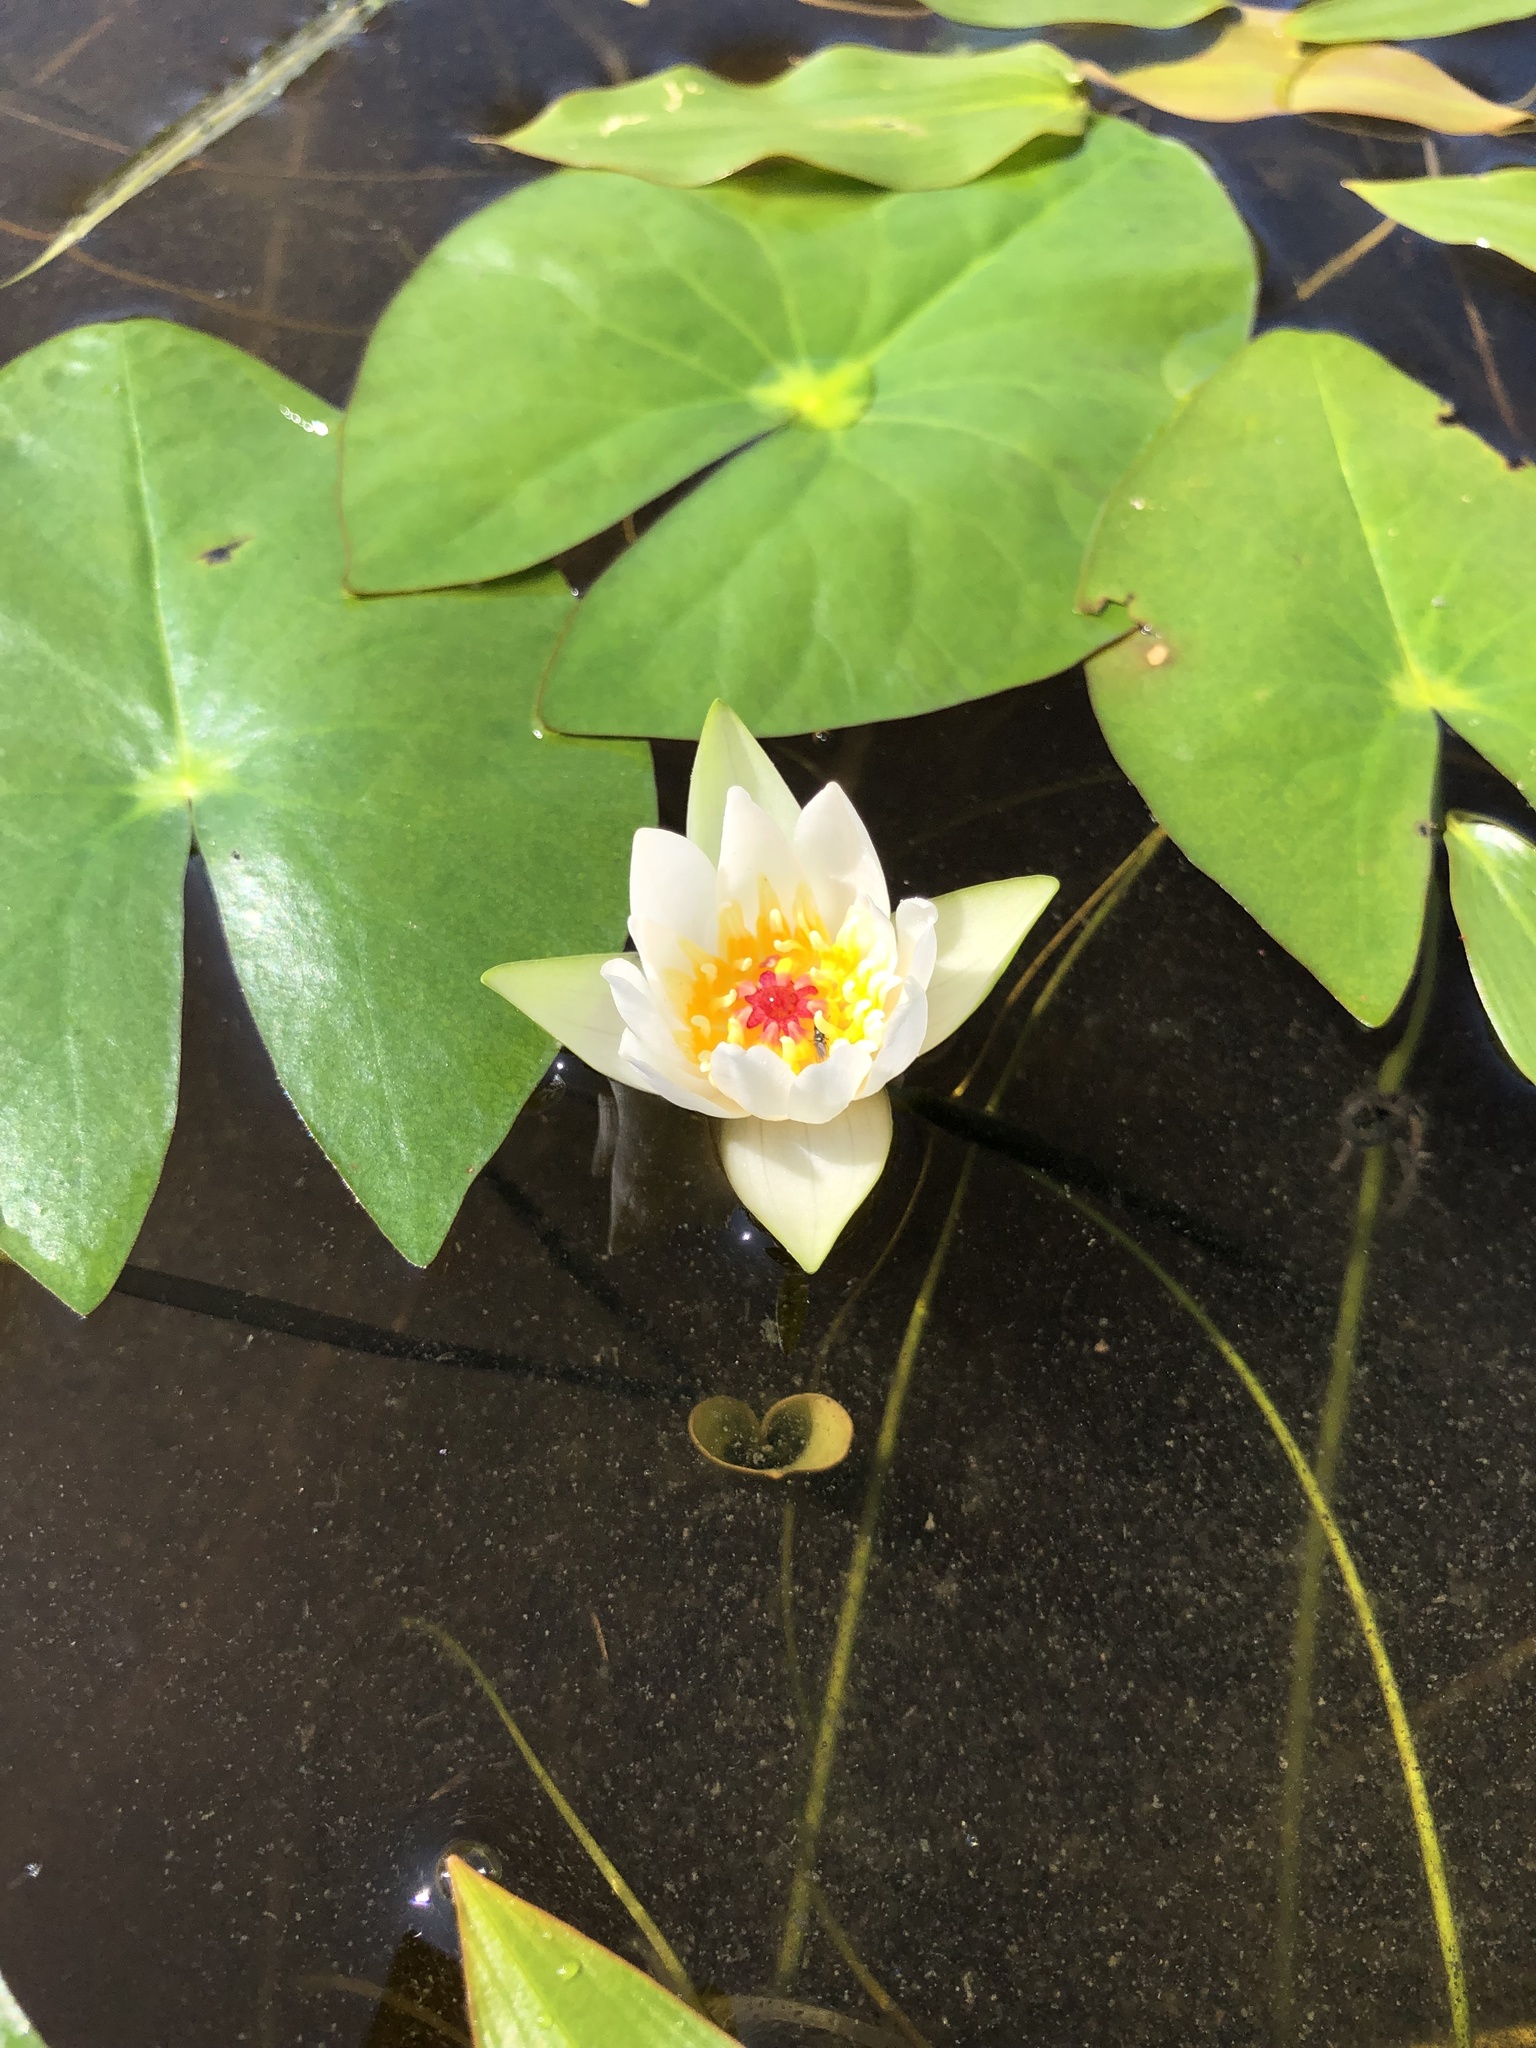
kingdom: Plantae
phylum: Tracheophyta
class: Magnoliopsida
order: Nymphaeales
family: Nymphaeaceae
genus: Nymphaea
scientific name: Nymphaea tetragona
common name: Pygmy water-lily
